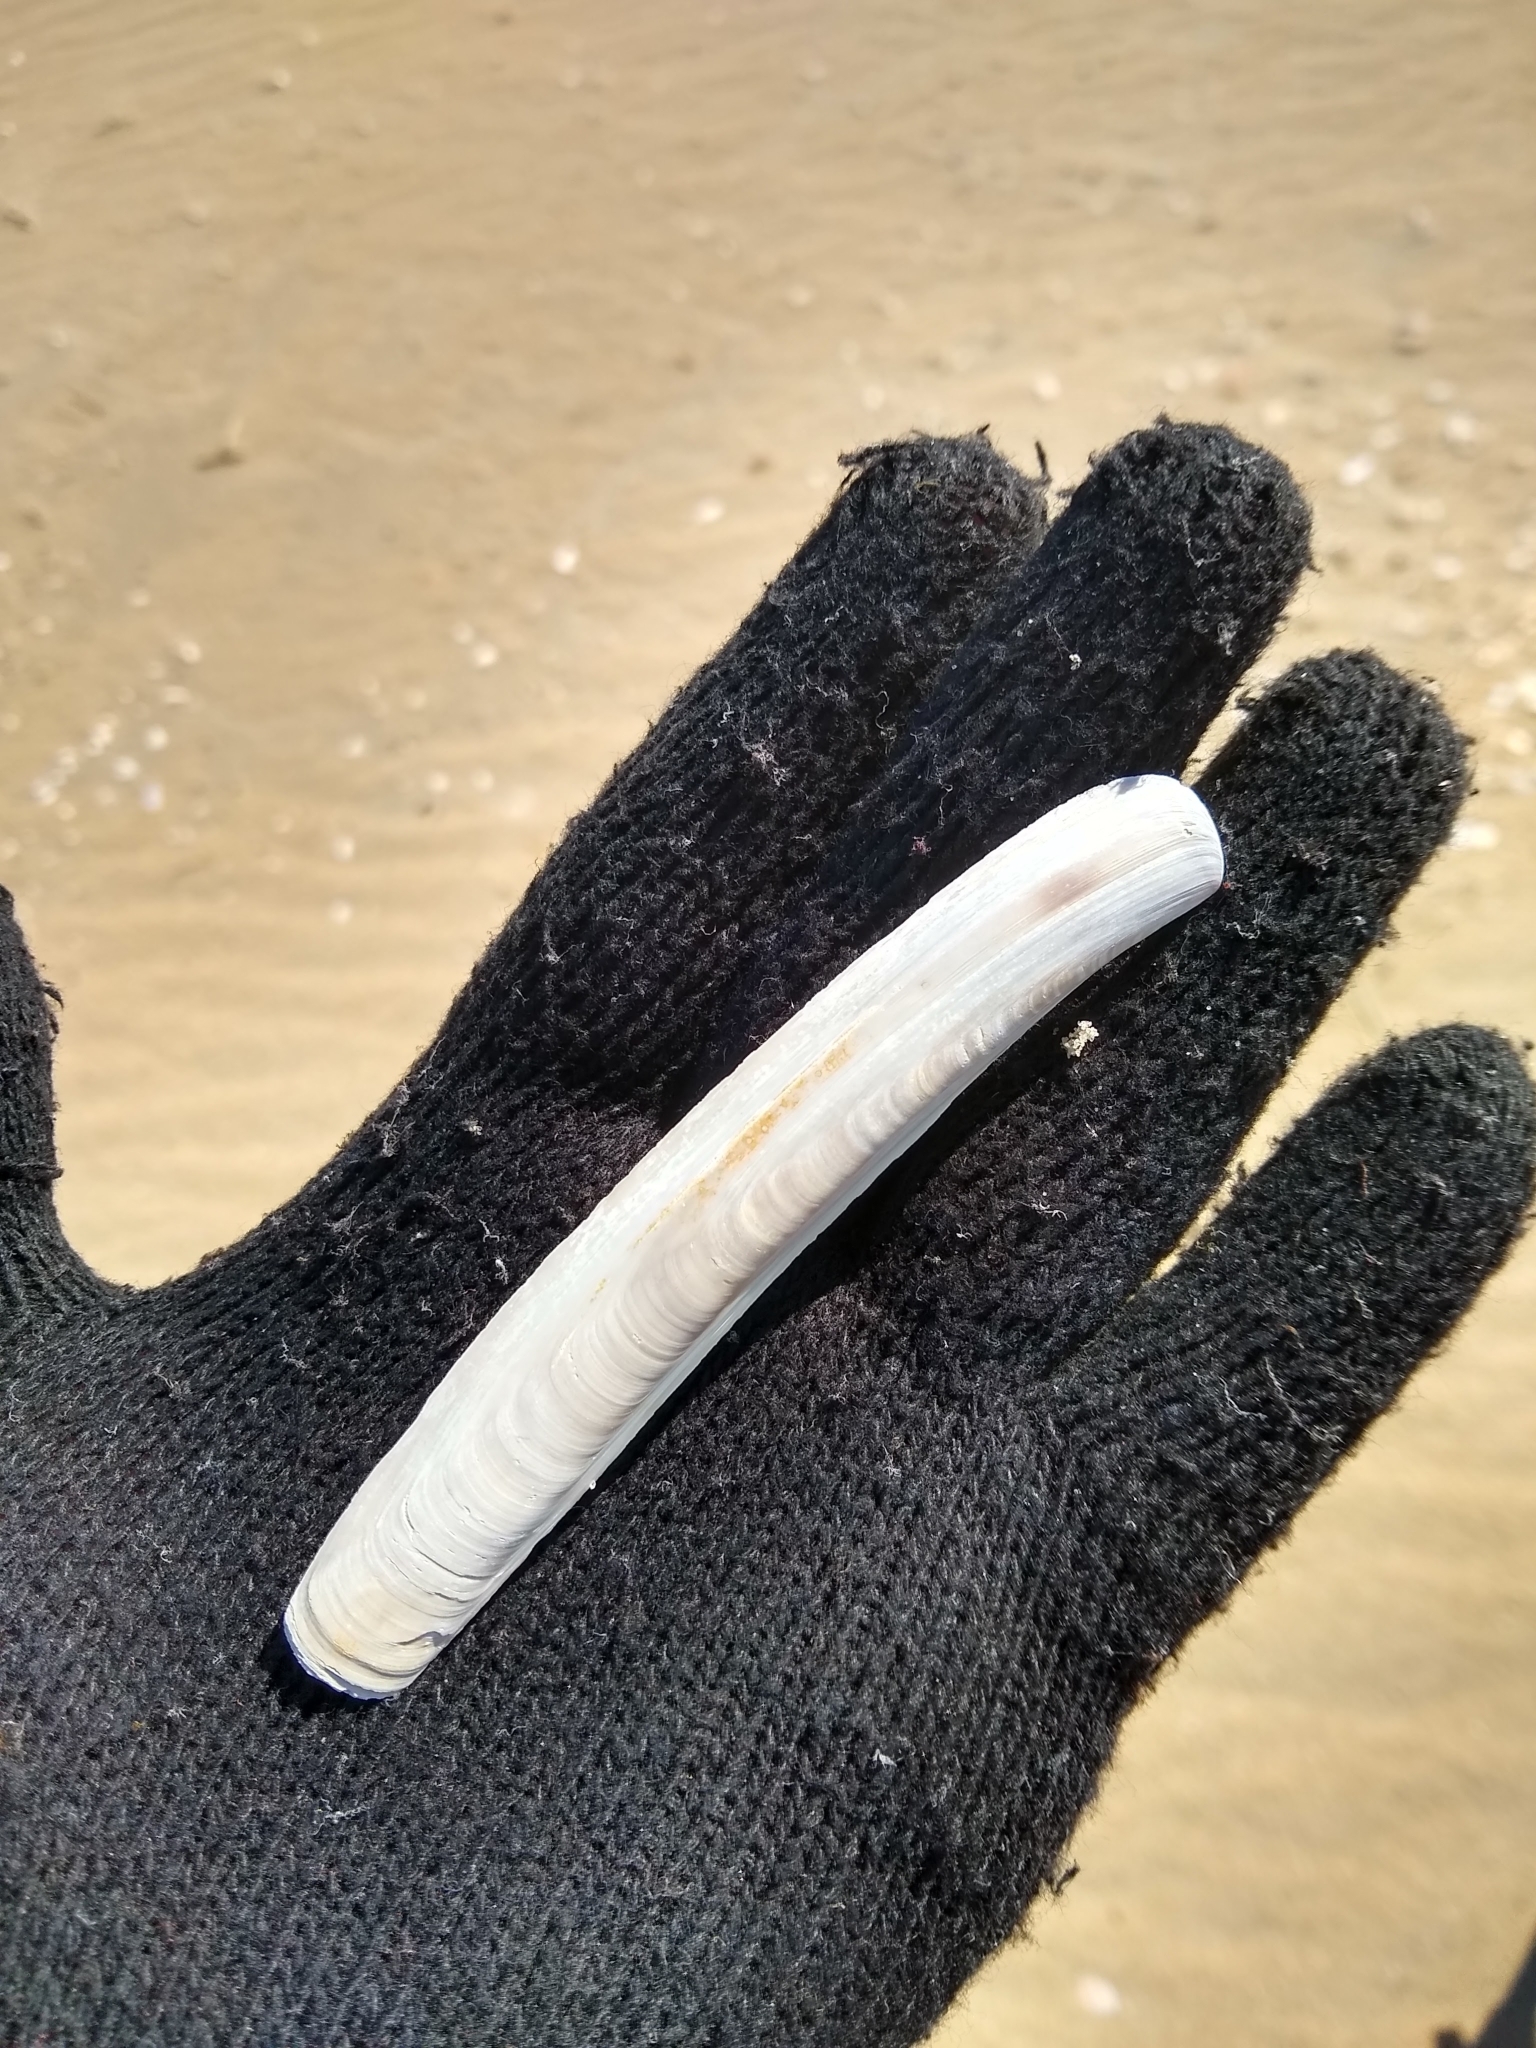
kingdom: Animalia
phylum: Mollusca
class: Bivalvia
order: Adapedonta
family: Pharidae
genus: Ensis
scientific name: Ensis leei
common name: American jack knife clam
